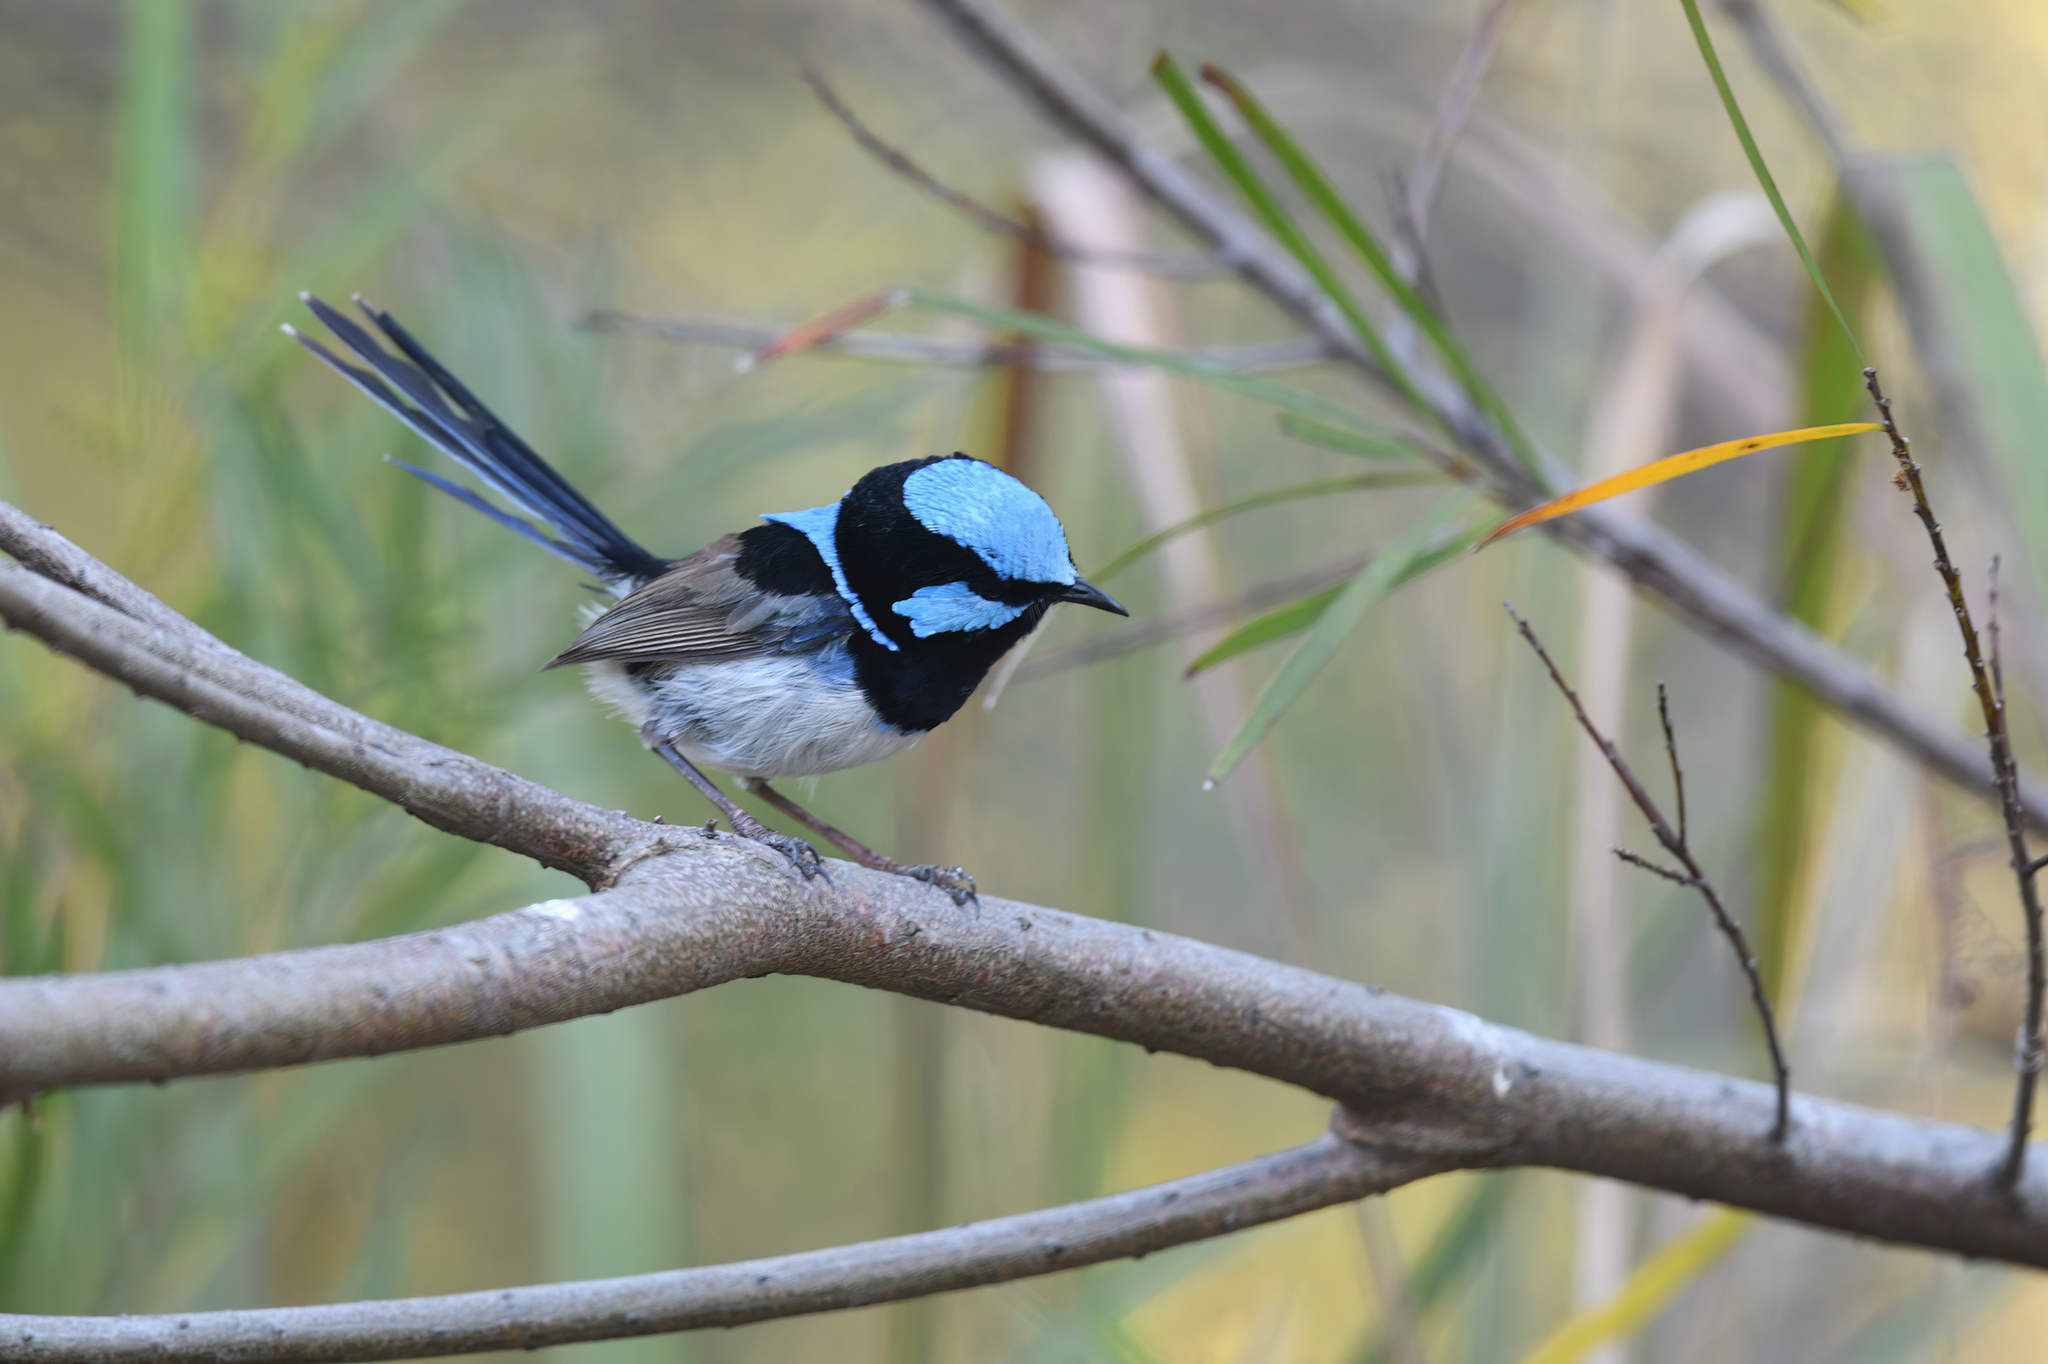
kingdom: Animalia
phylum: Chordata
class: Aves
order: Passeriformes
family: Maluridae
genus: Malurus
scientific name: Malurus cyaneus
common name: Superb fairywren
